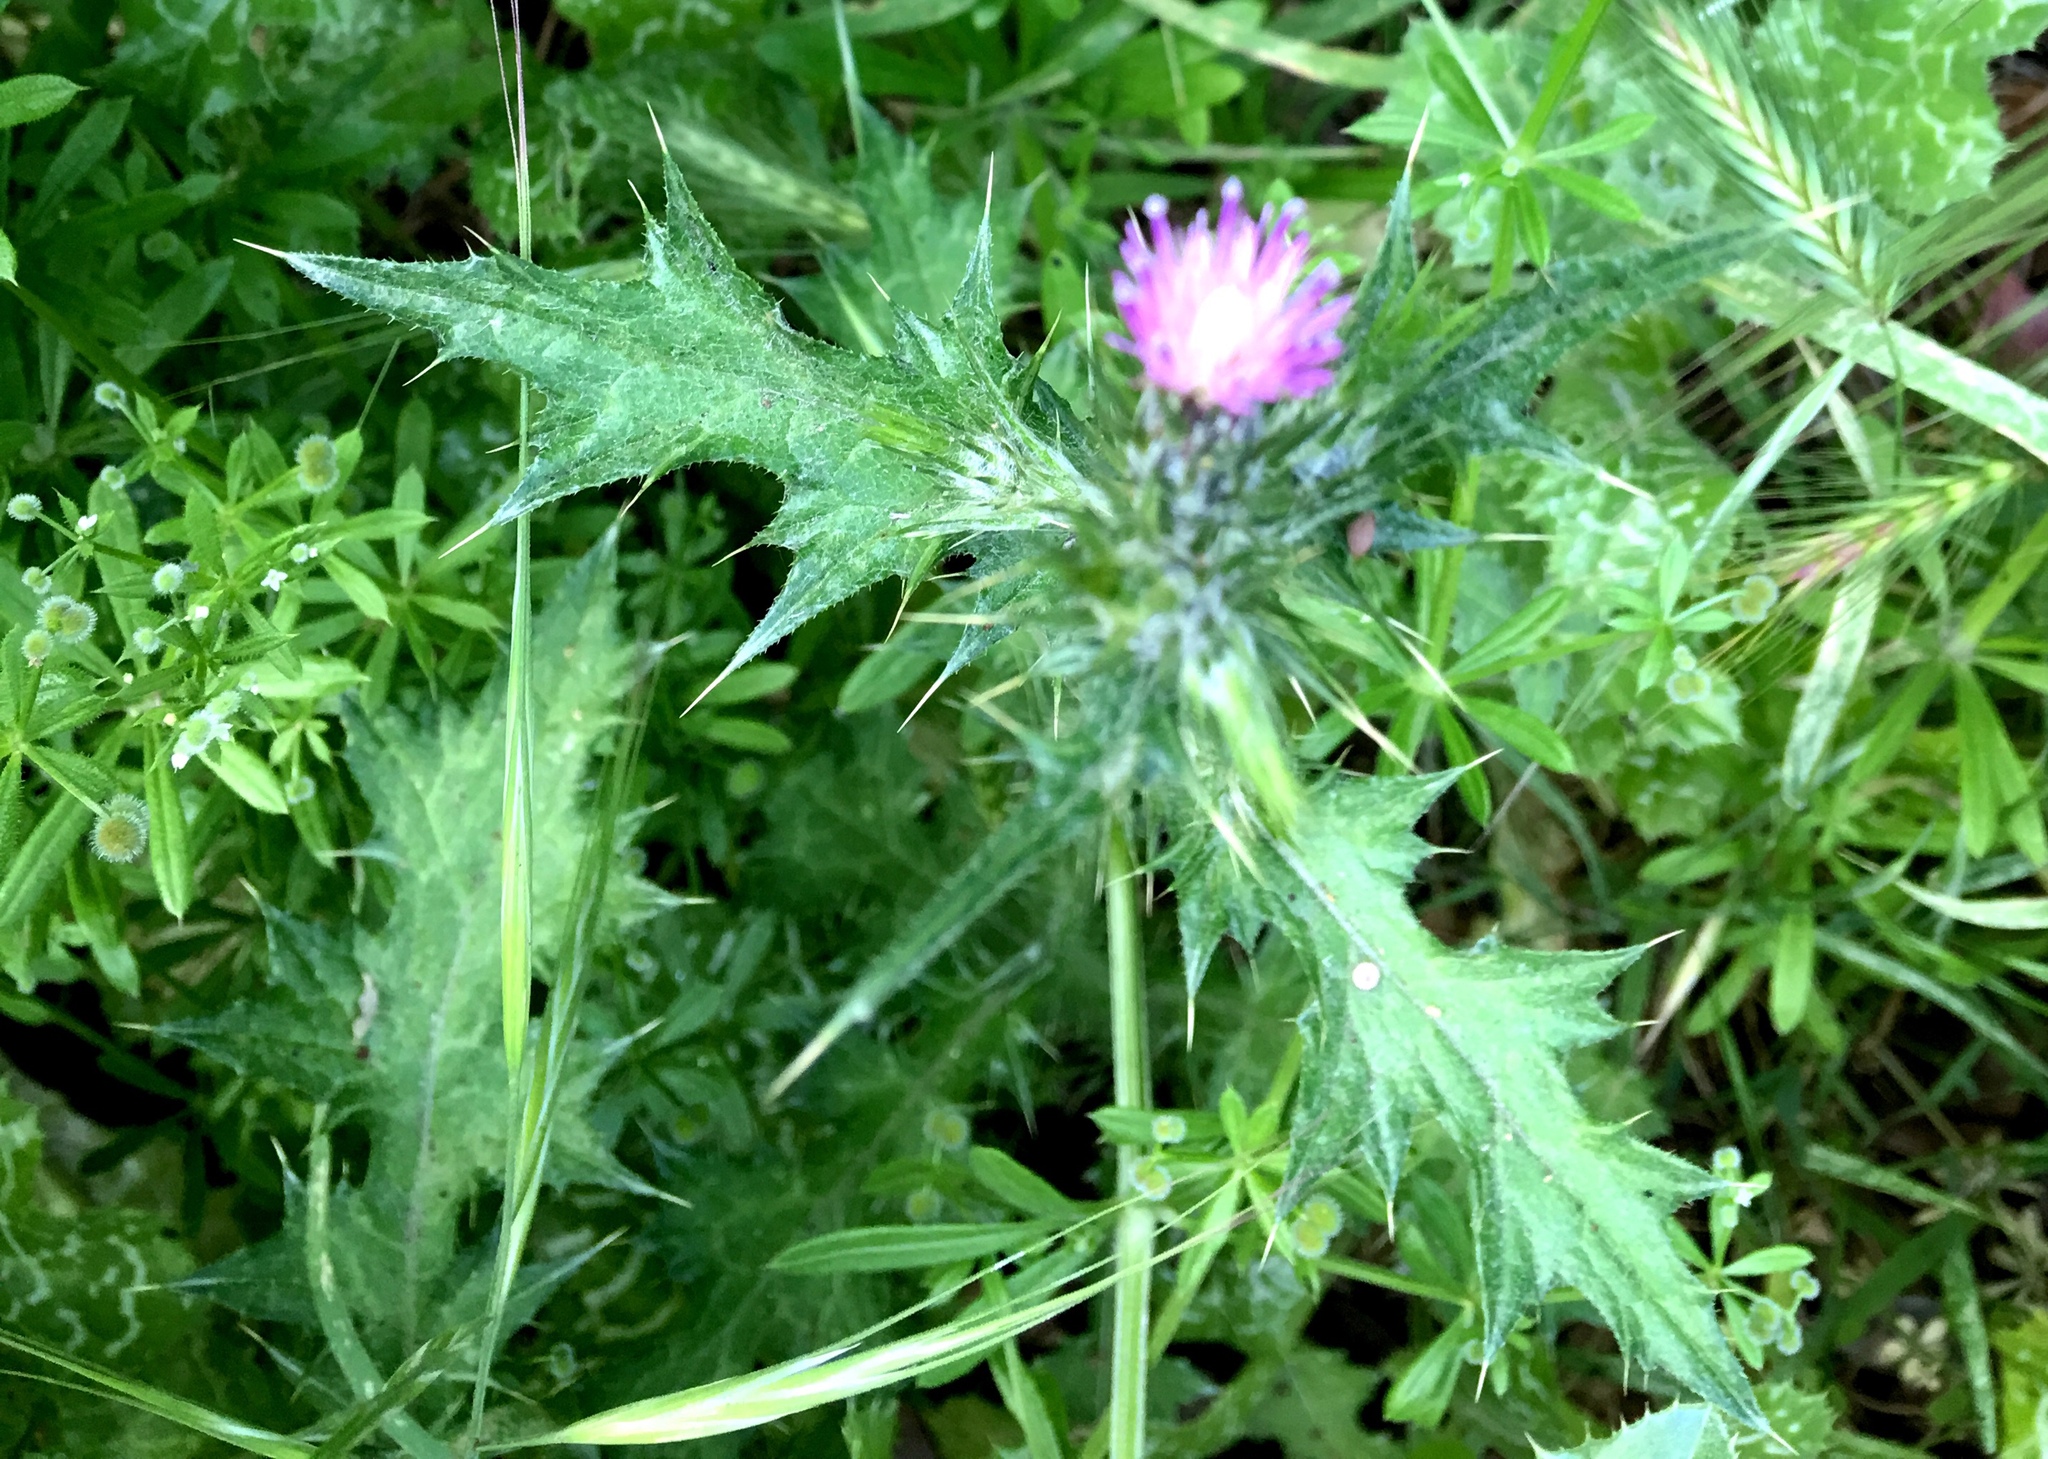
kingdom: Plantae
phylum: Tracheophyta
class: Magnoliopsida
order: Asterales
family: Asteraceae
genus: Carduus
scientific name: Carduus pycnocephalus
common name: Plymouth thistle
